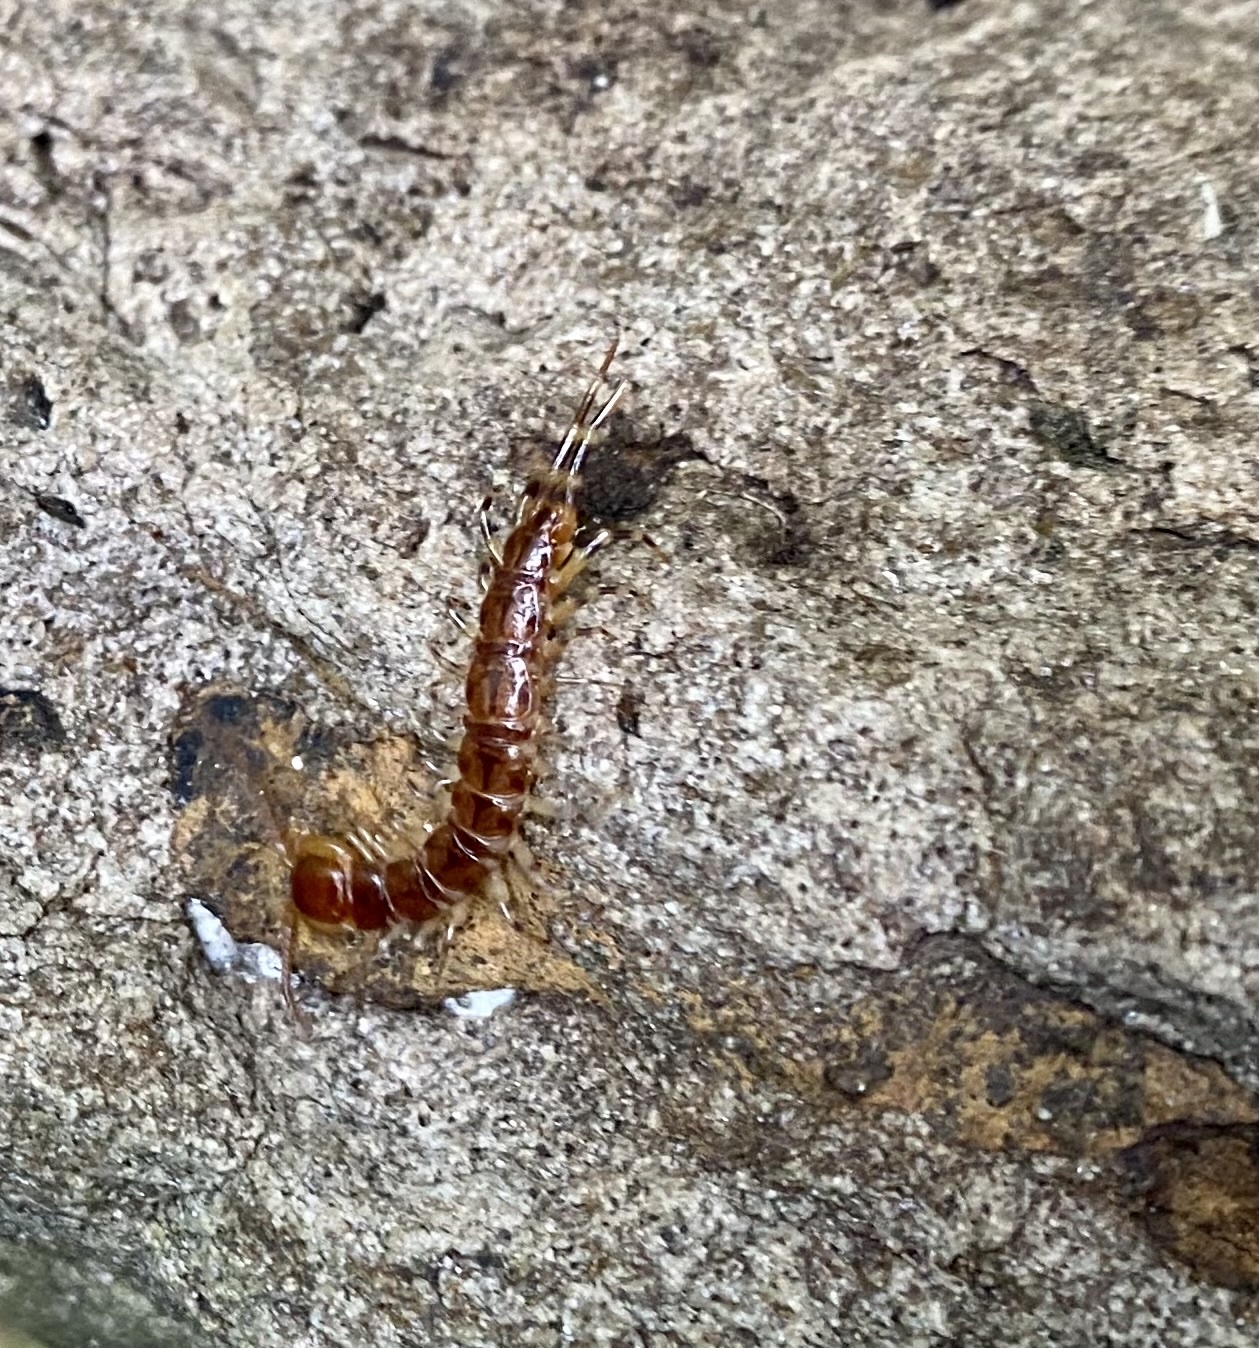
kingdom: Animalia
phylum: Arthropoda
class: Chilopoda
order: Lithobiomorpha
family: Lithobiidae
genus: Lithobius
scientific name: Lithobius variegatus
